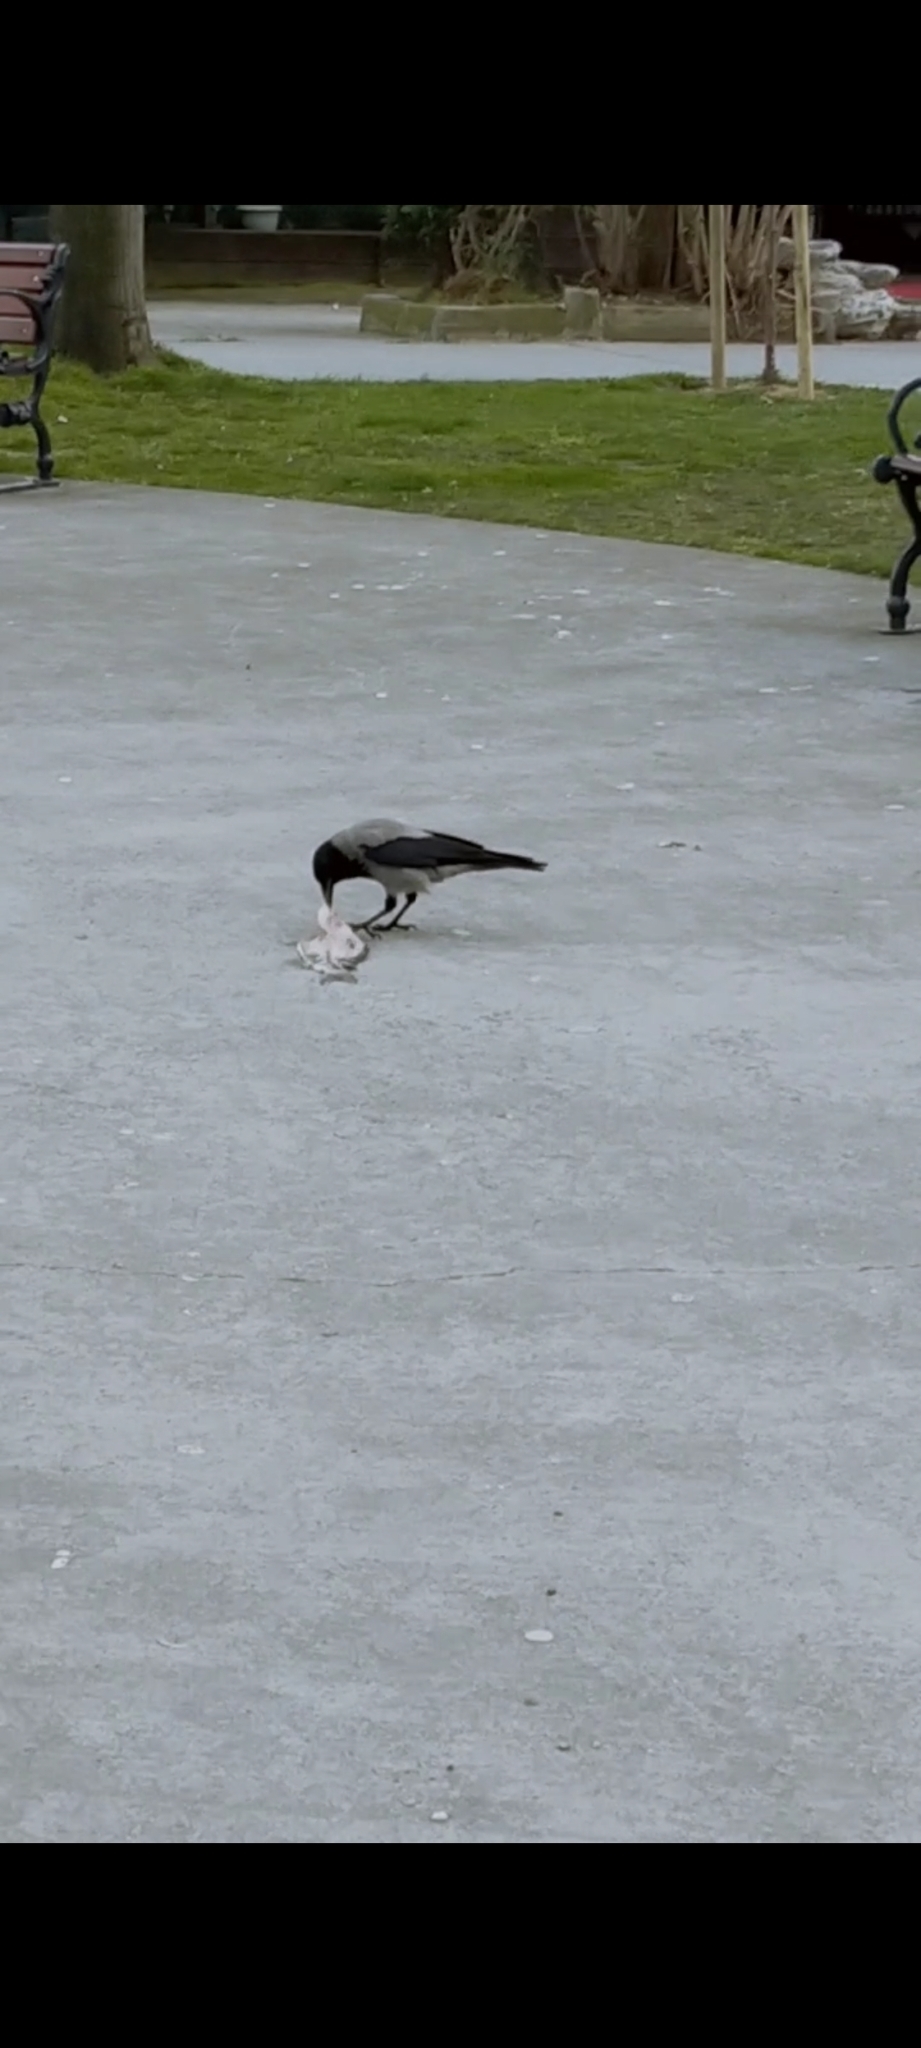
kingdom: Animalia
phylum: Chordata
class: Aves
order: Passeriformes
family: Corvidae
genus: Corvus
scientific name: Corvus cornix
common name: Hooded crow
